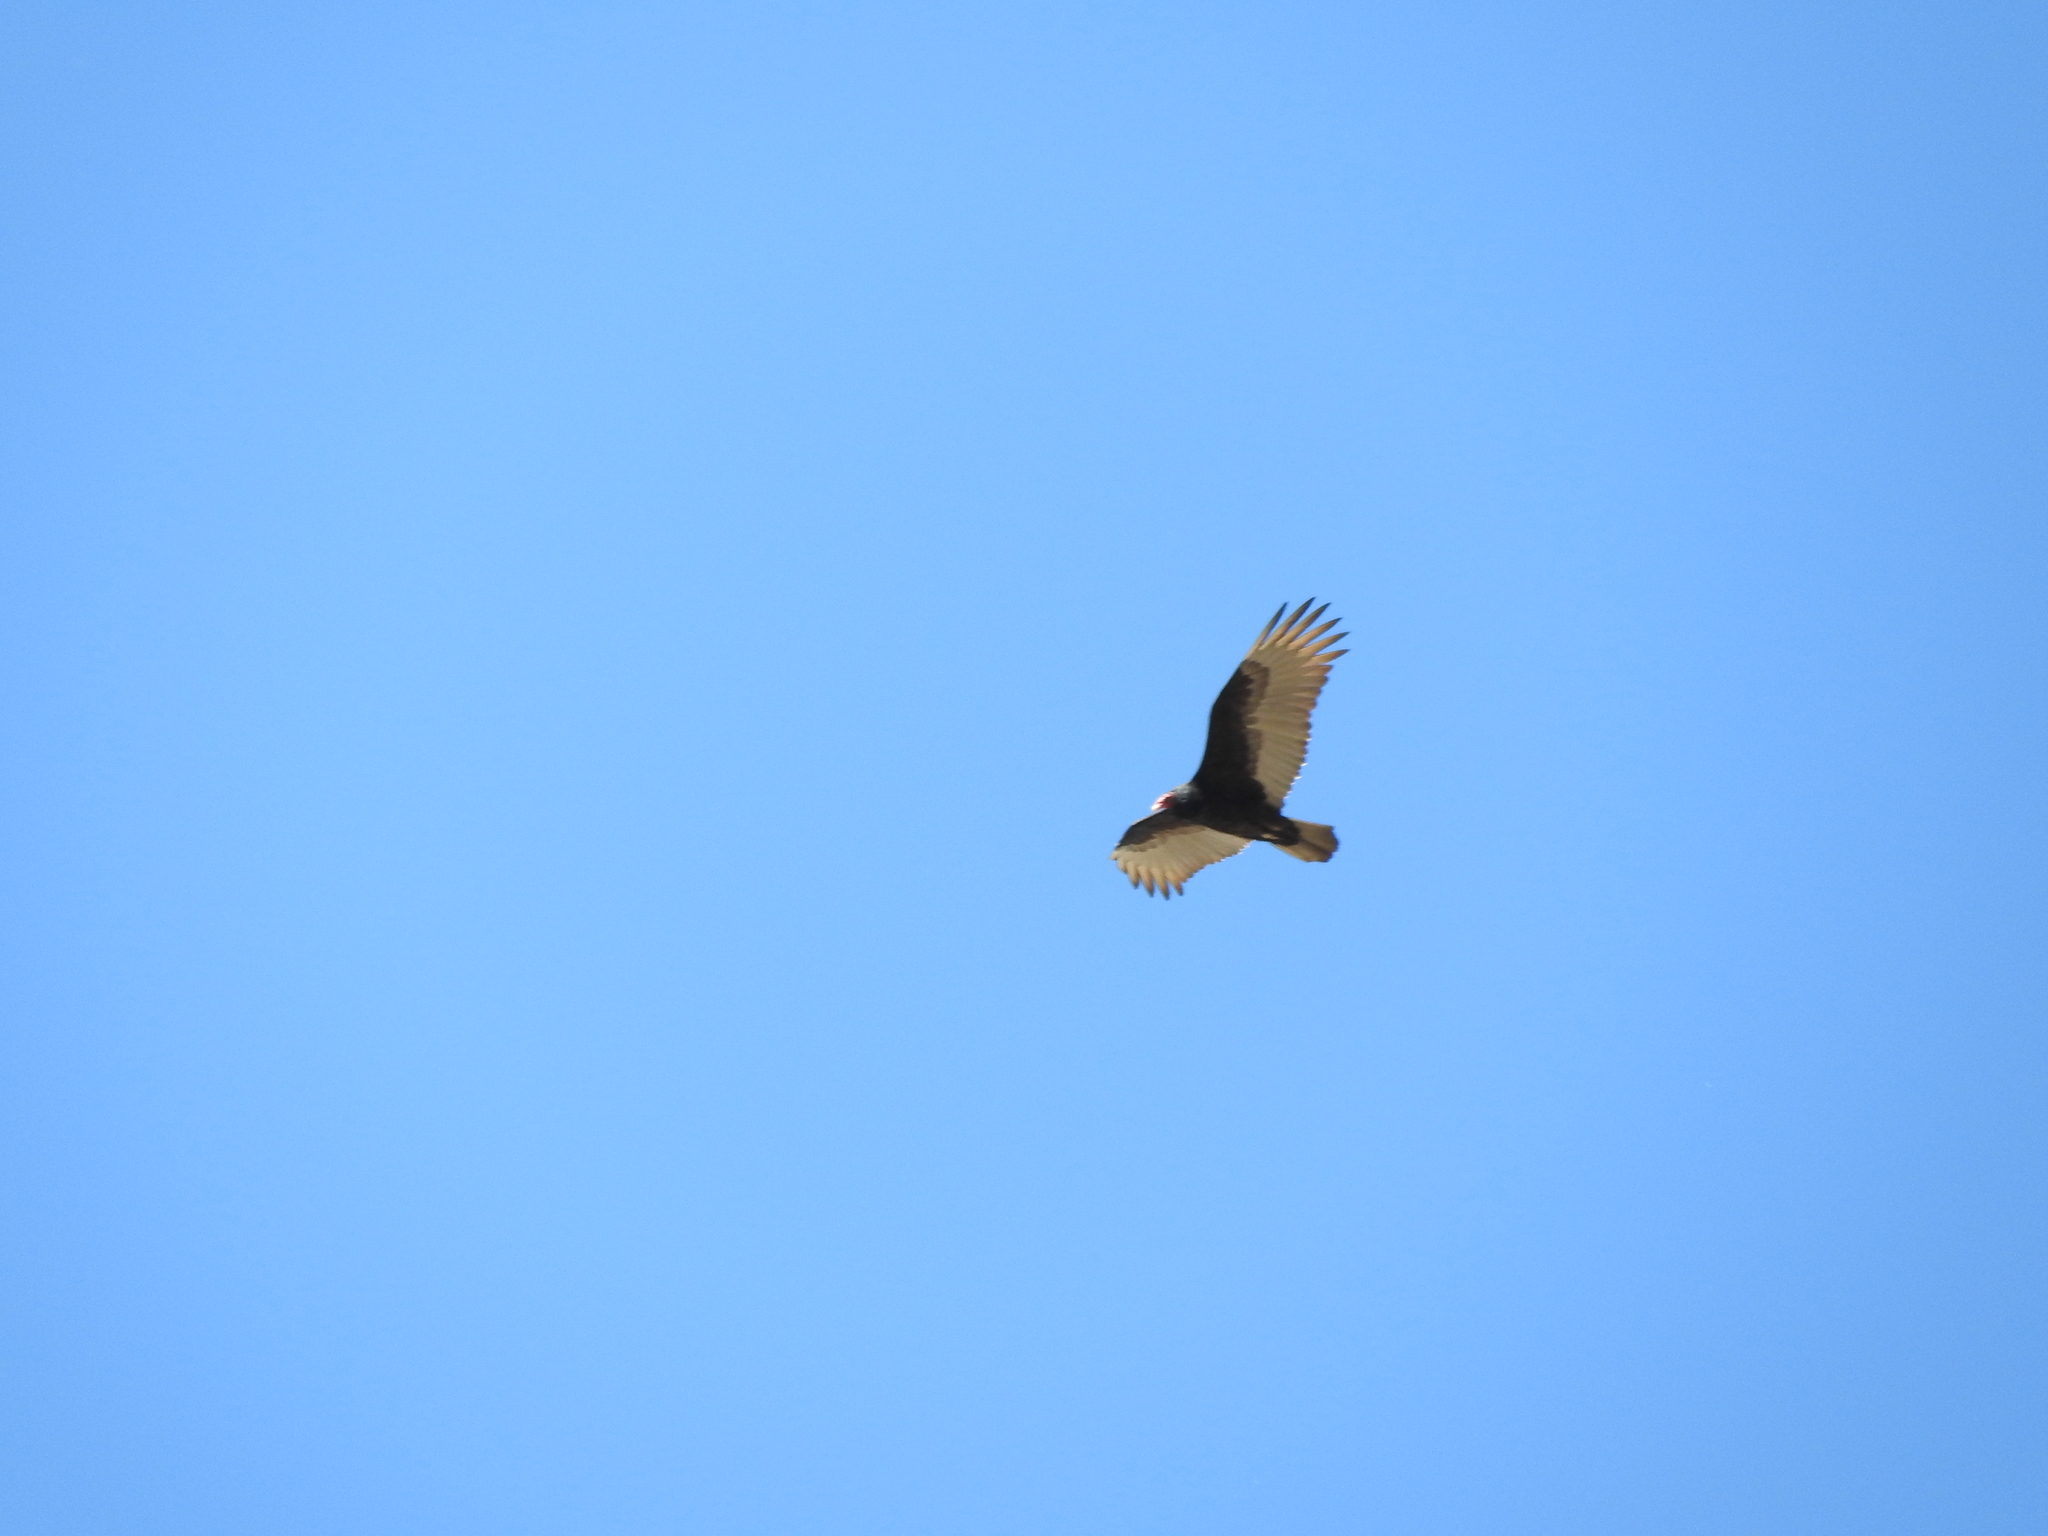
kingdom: Animalia
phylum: Chordata
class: Aves
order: Accipitriformes
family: Cathartidae
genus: Cathartes
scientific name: Cathartes aura
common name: Turkey vulture
